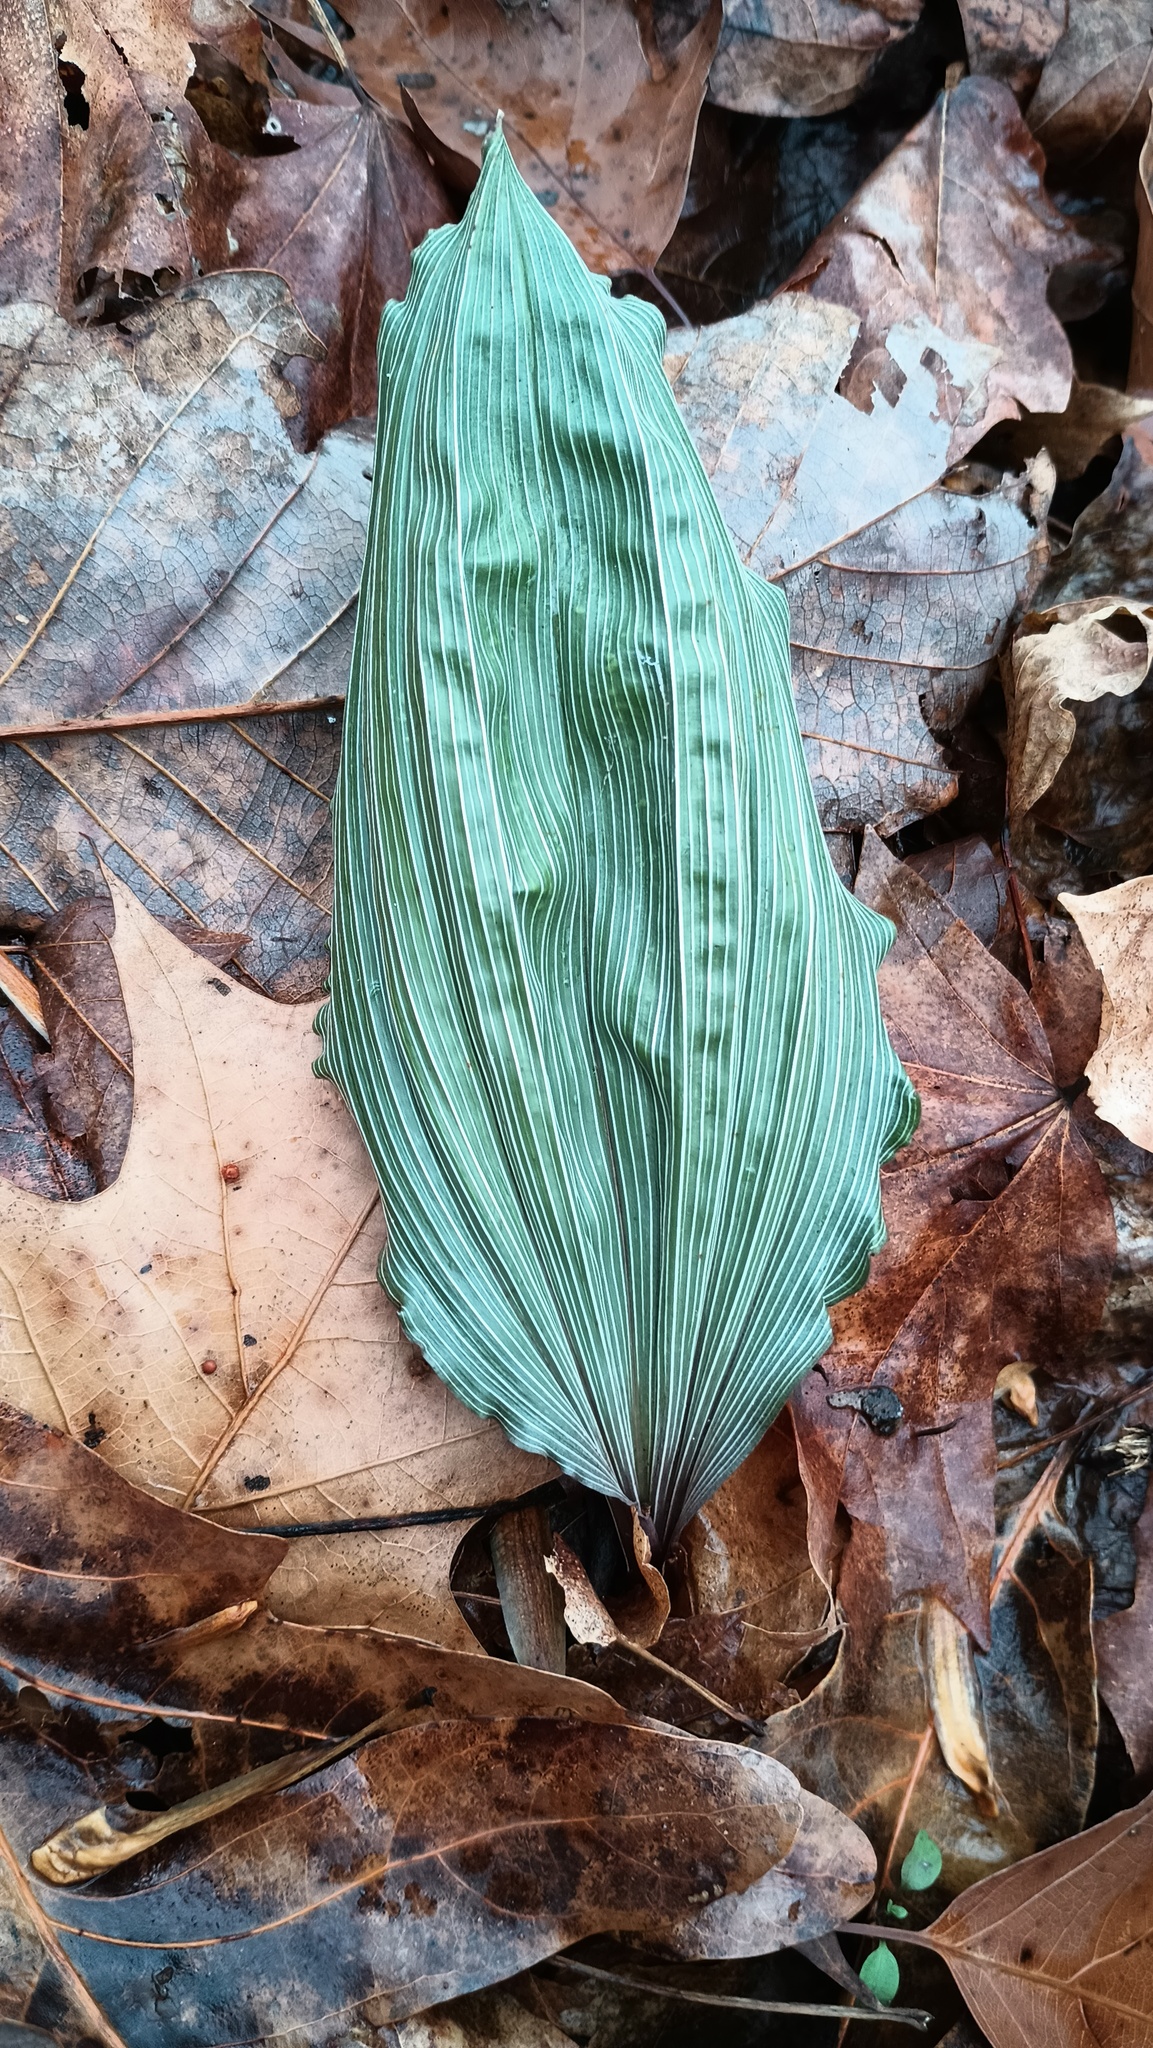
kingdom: Plantae
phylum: Tracheophyta
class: Liliopsida
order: Asparagales
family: Orchidaceae
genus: Aplectrum
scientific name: Aplectrum hyemale
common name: Adam-and-eve
